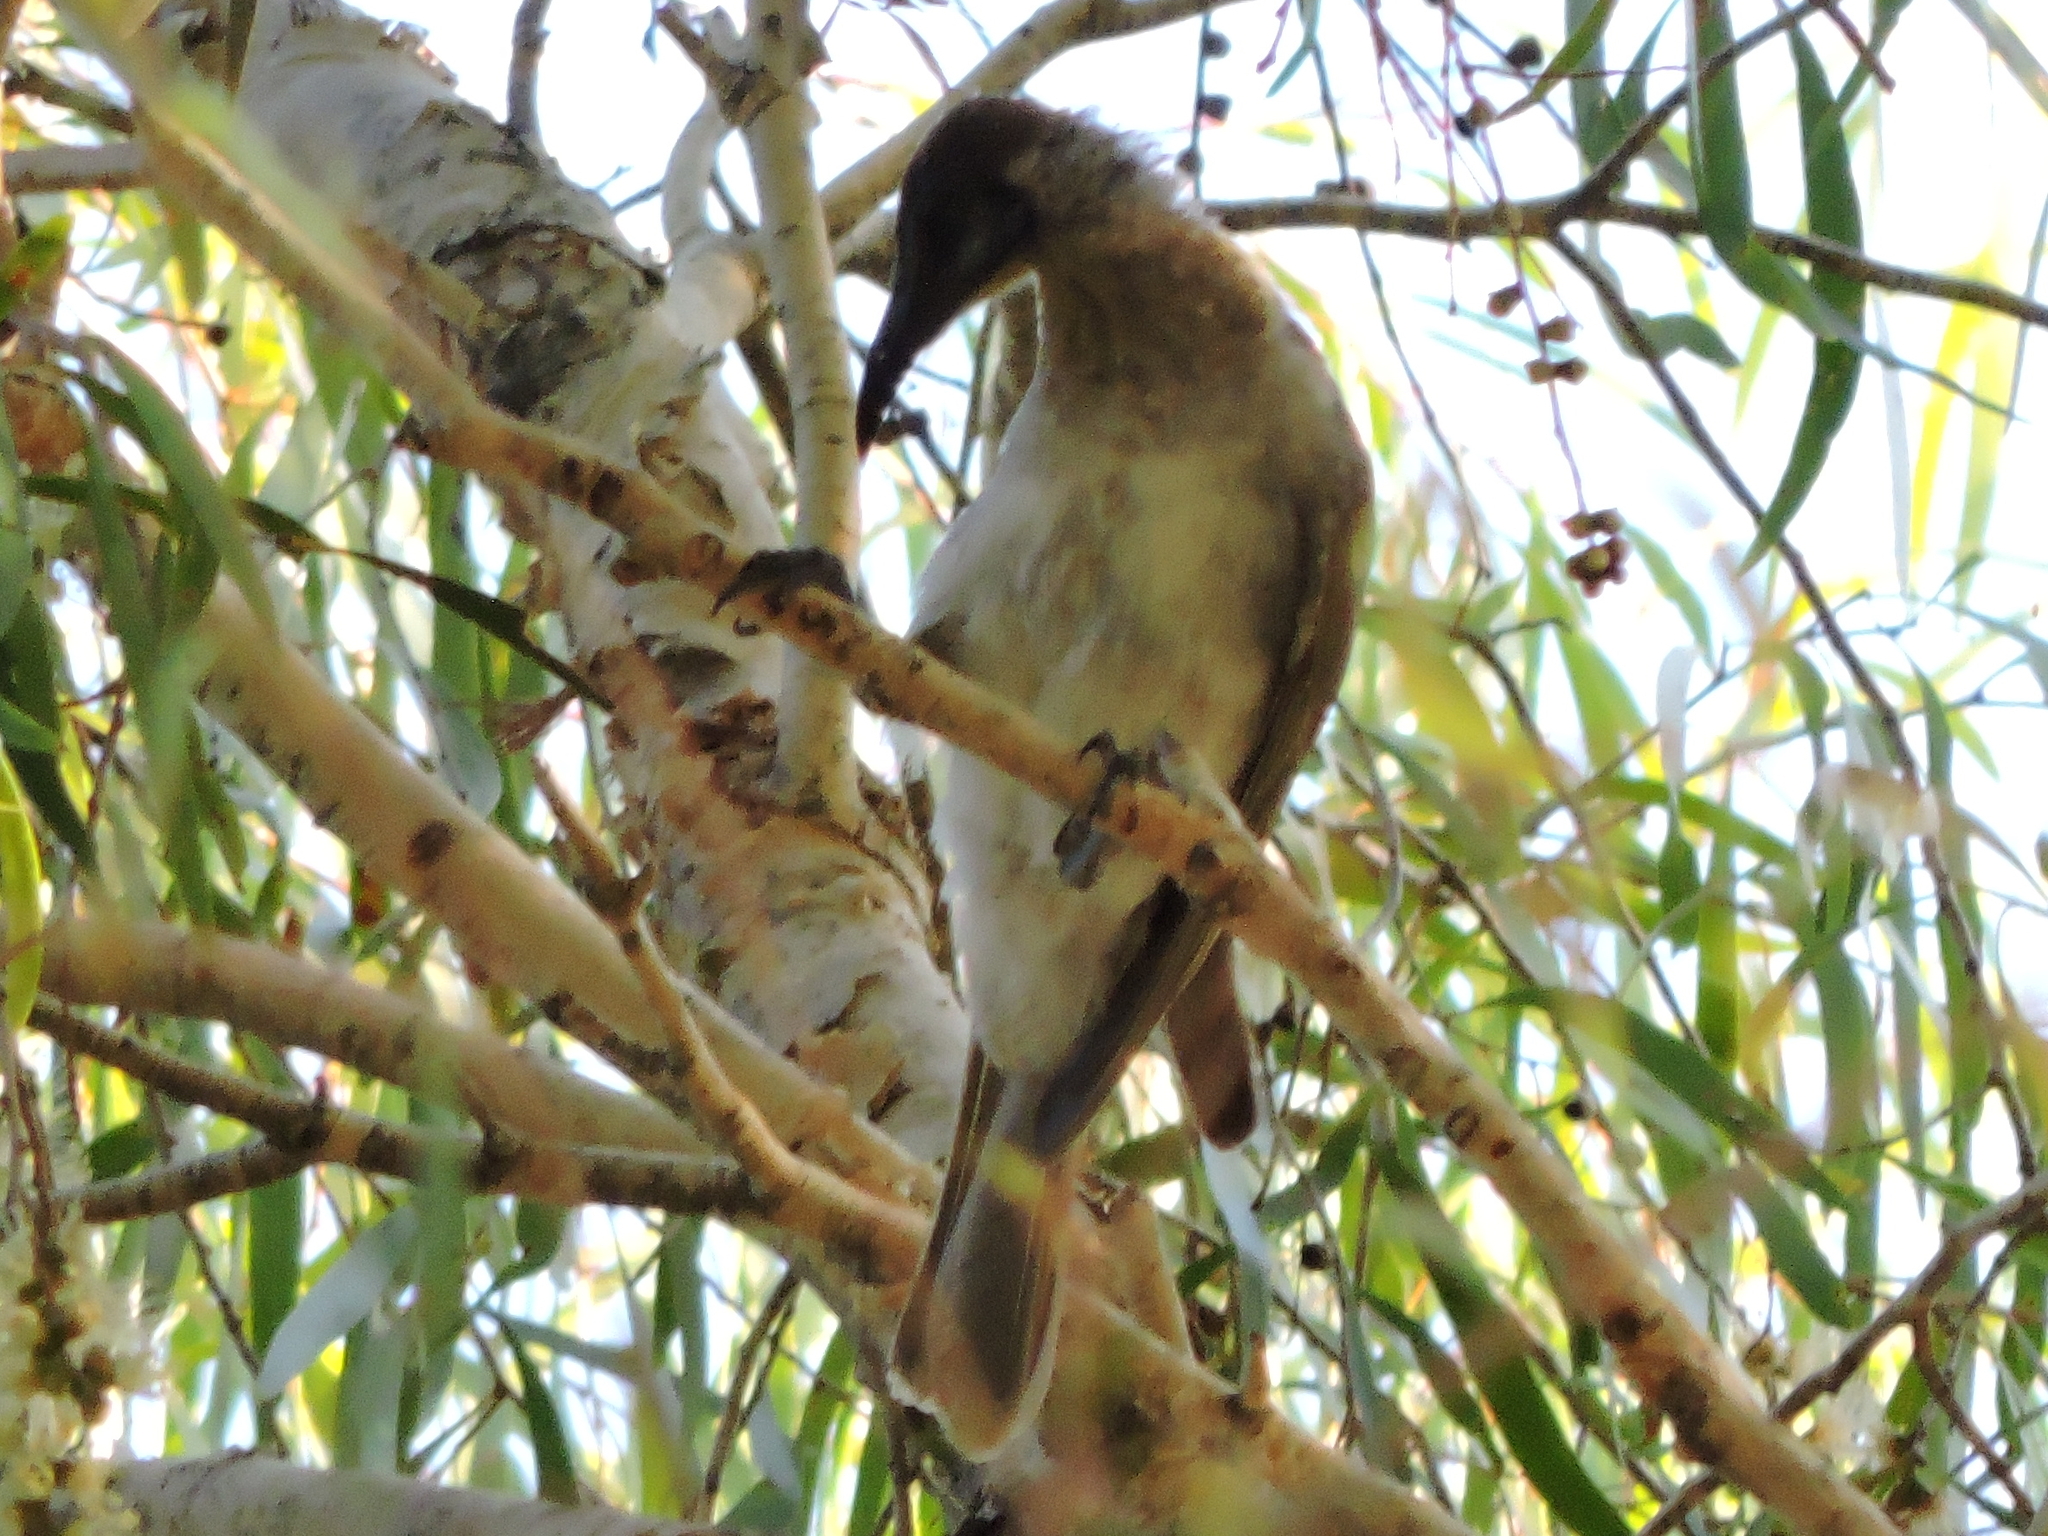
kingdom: Animalia
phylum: Chordata
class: Aves
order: Passeriformes
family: Meliphagidae
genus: Philemon
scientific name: Philemon citreogularis
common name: Little friarbird
